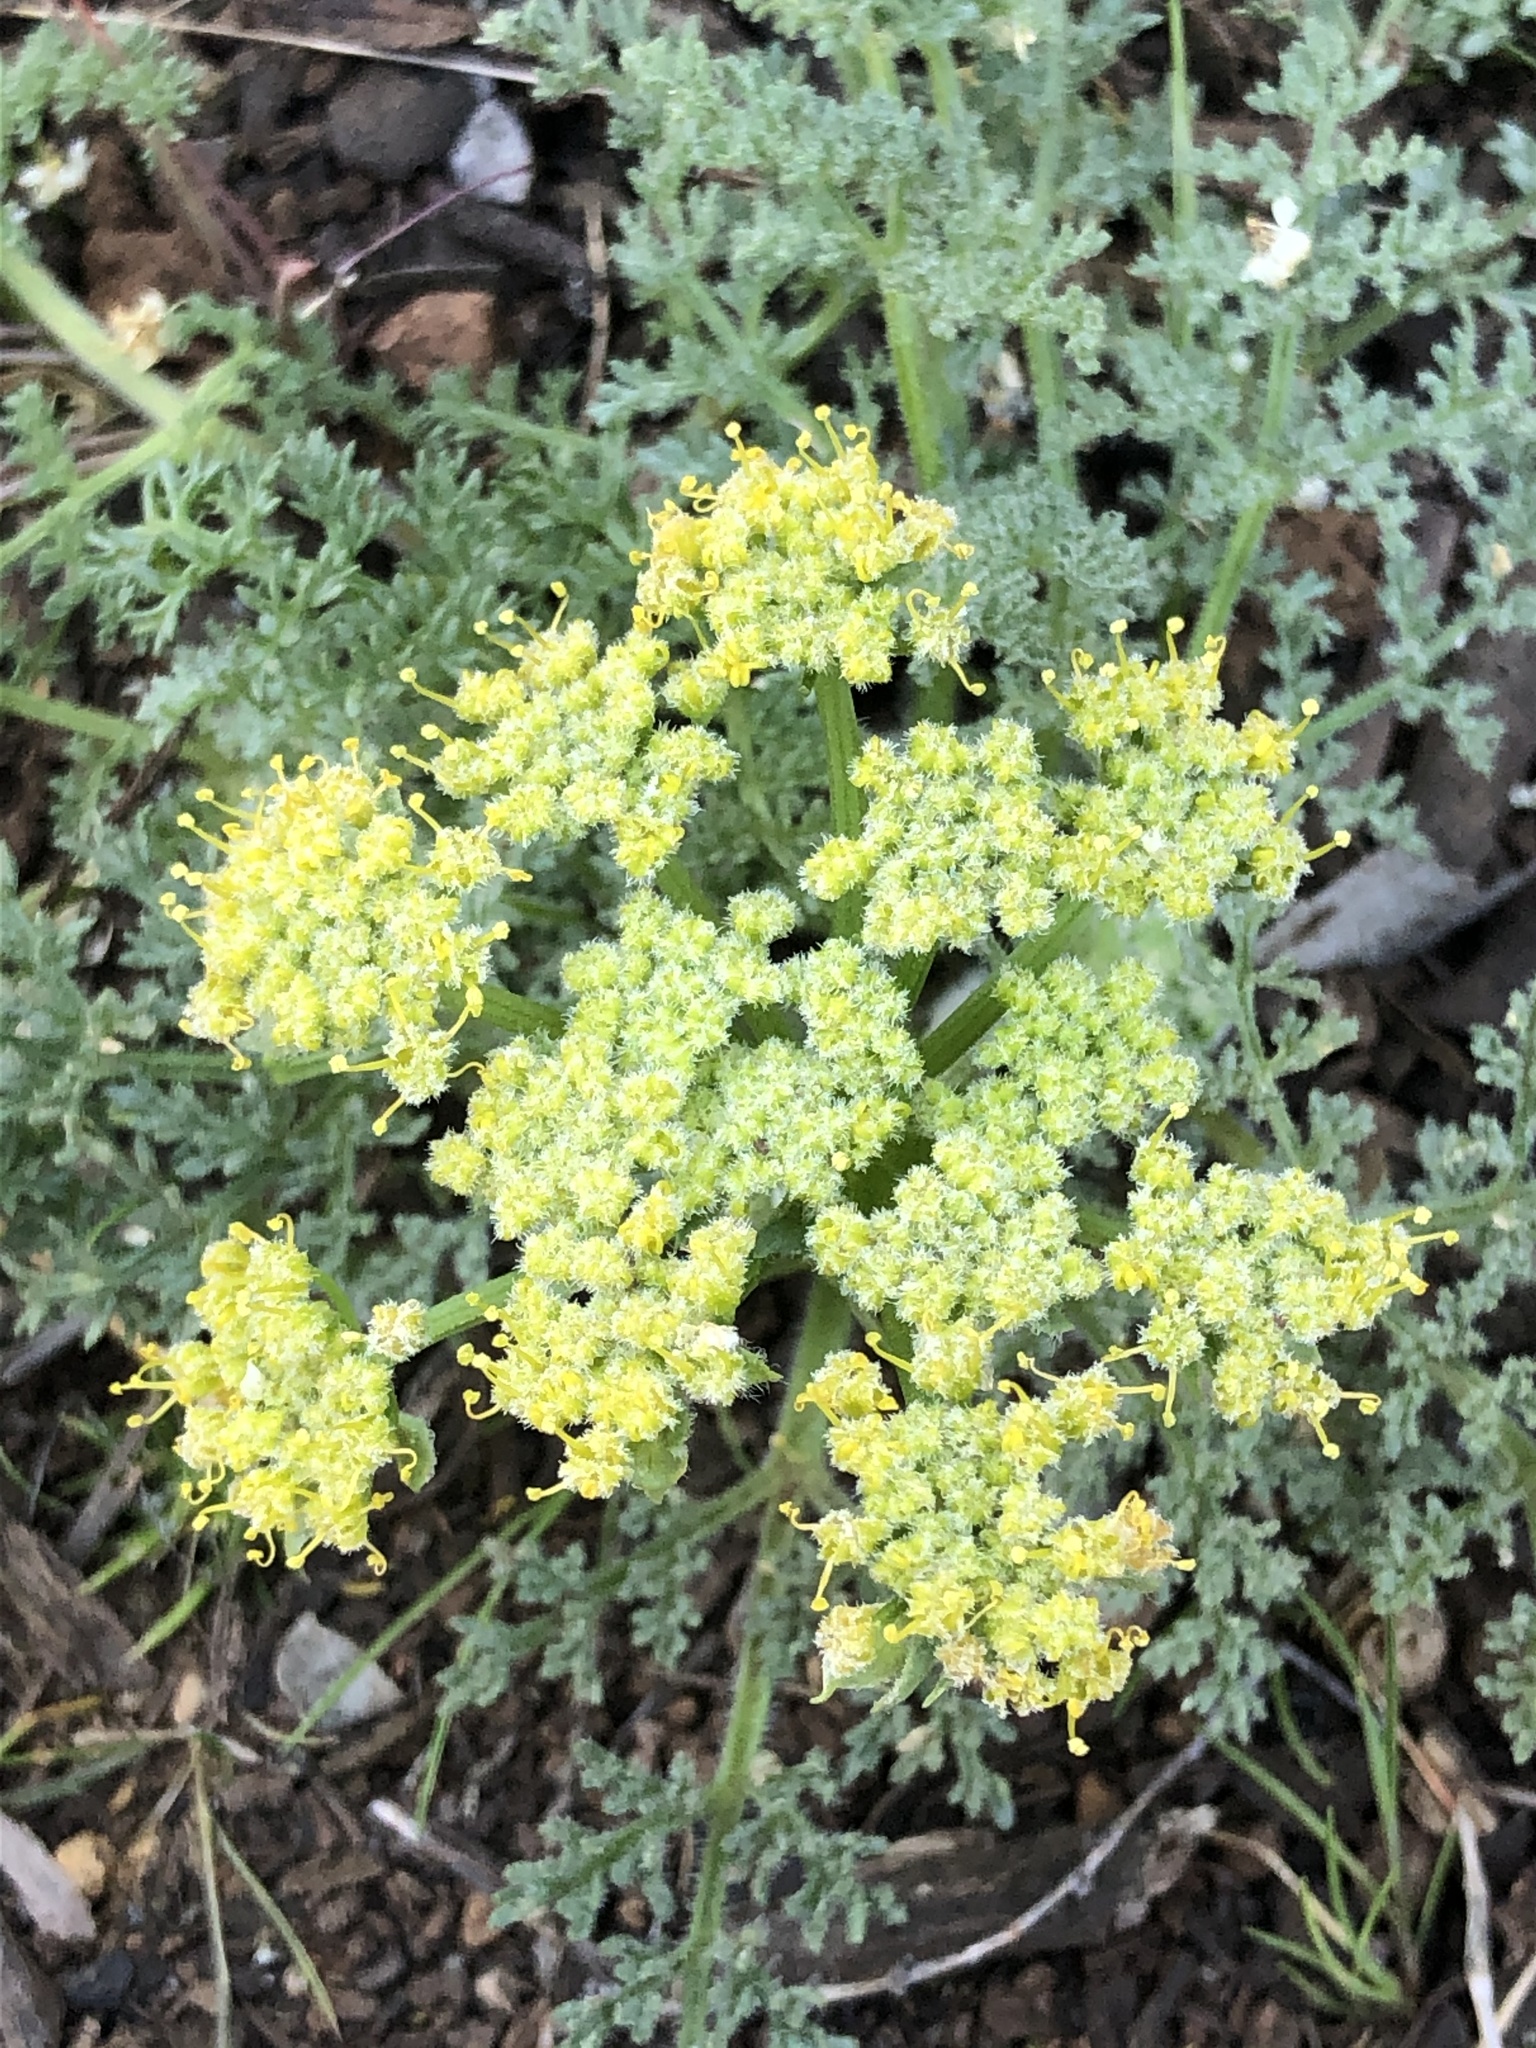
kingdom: Plantae
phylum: Tracheophyta
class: Magnoliopsida
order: Apiales
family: Apiaceae
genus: Lomatium
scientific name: Lomatium dasycarpum
